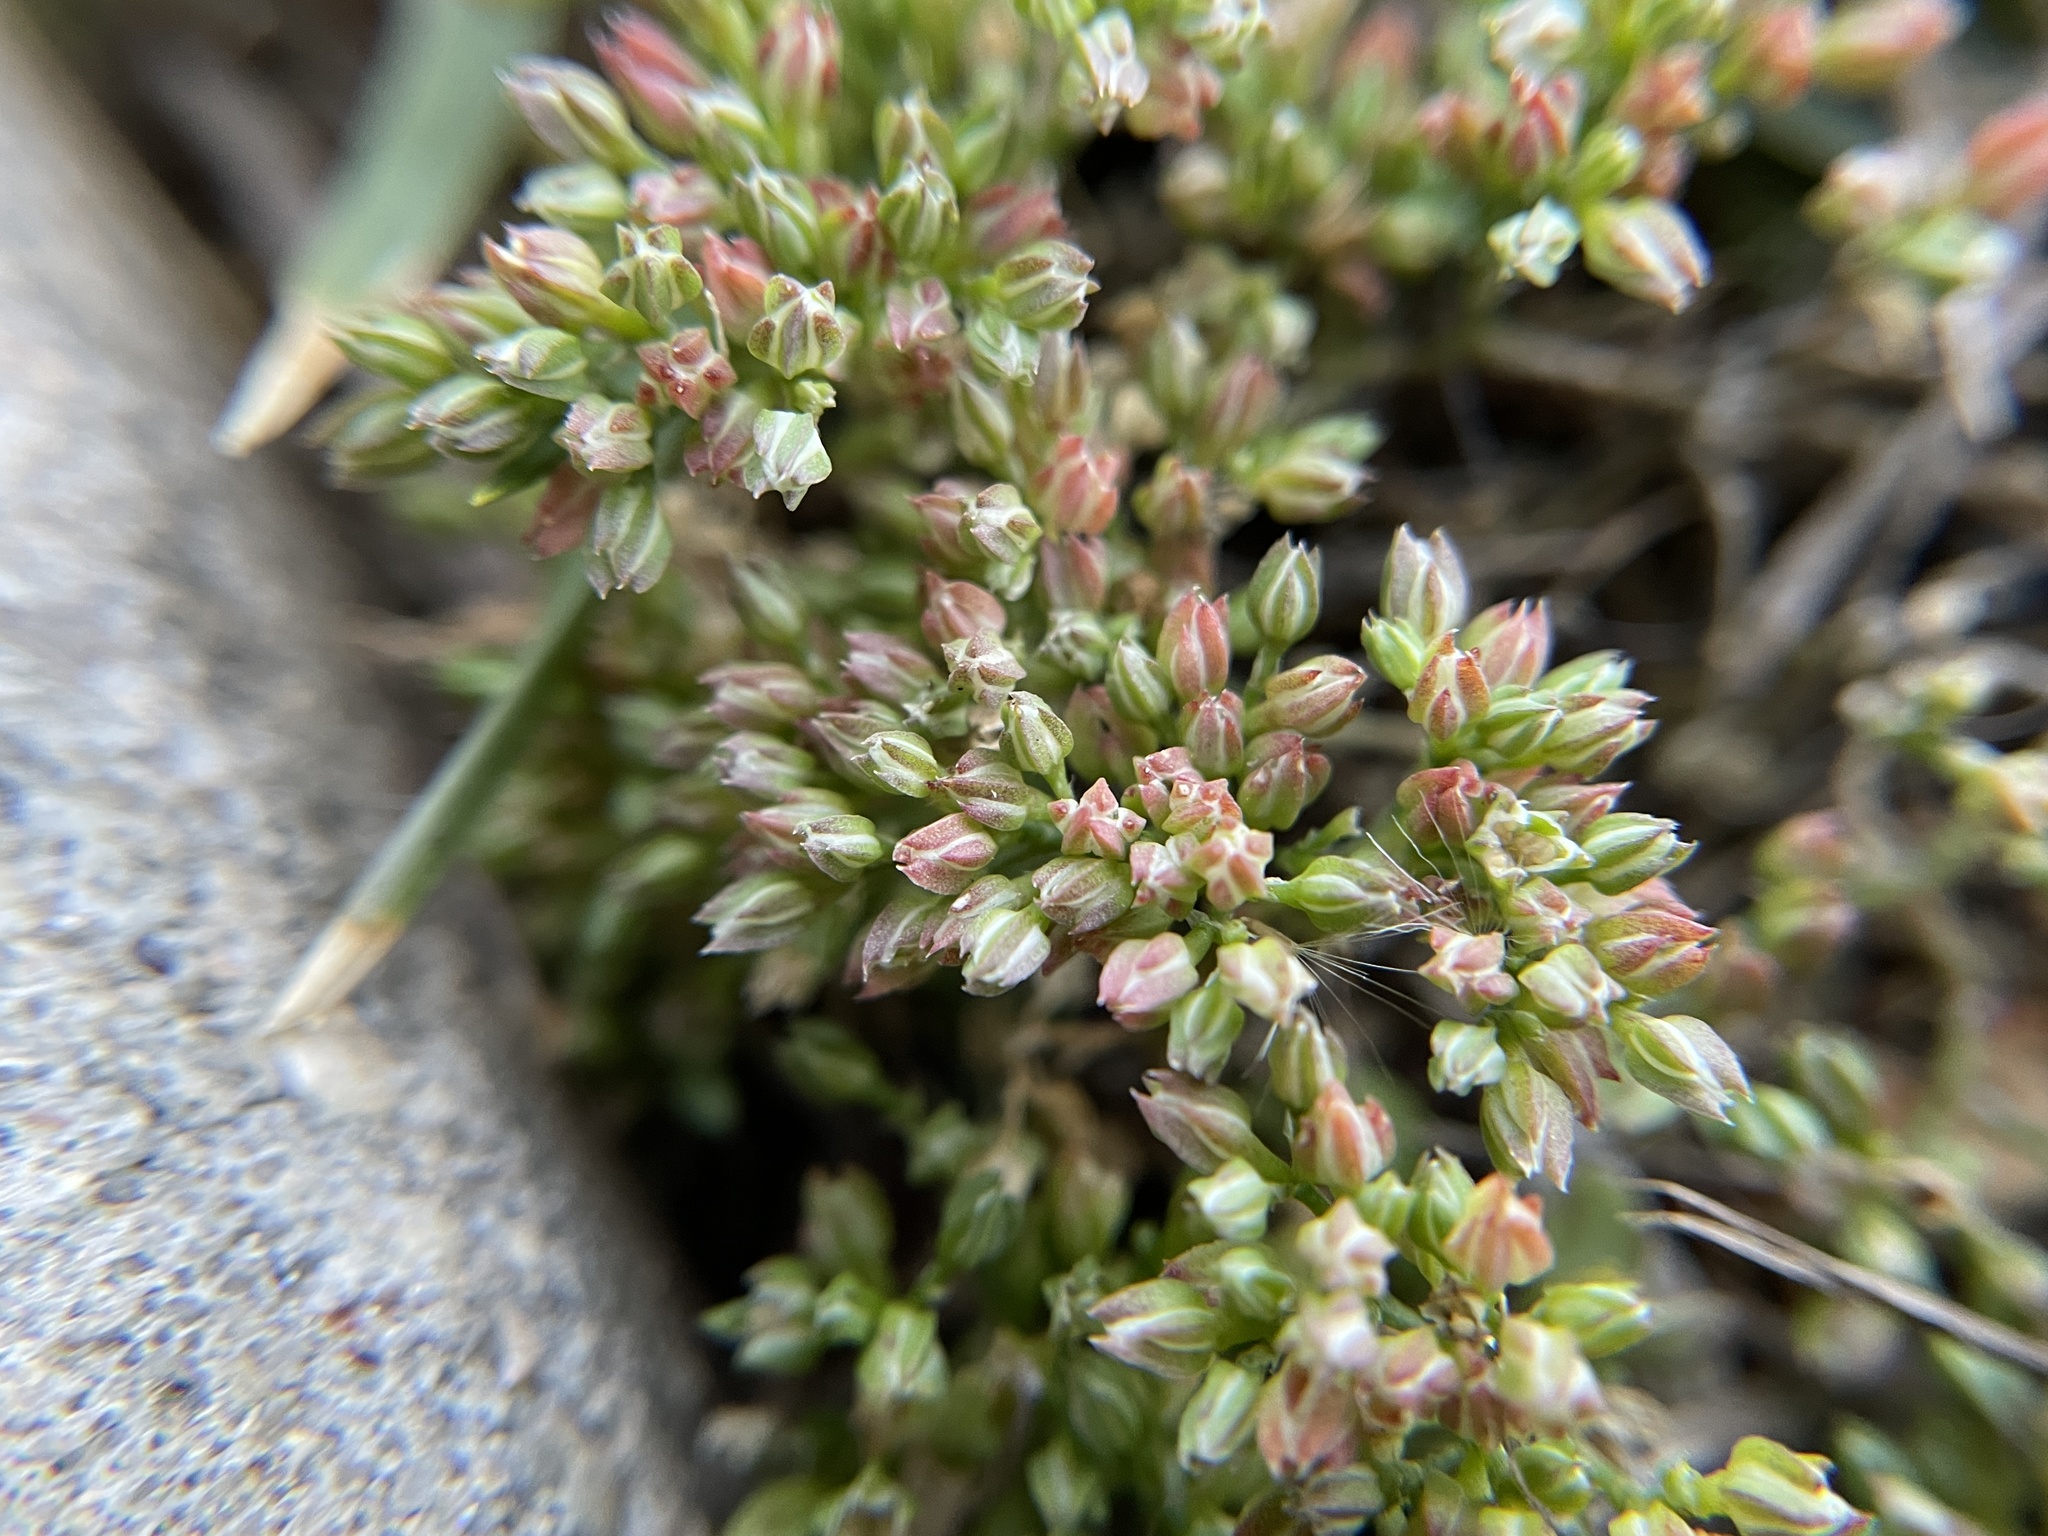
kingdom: Plantae
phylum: Tracheophyta
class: Magnoliopsida
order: Caryophyllales
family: Caryophyllaceae
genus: Polycarpon
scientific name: Polycarpon tetraphyllum
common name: Four-leaved all-seed
